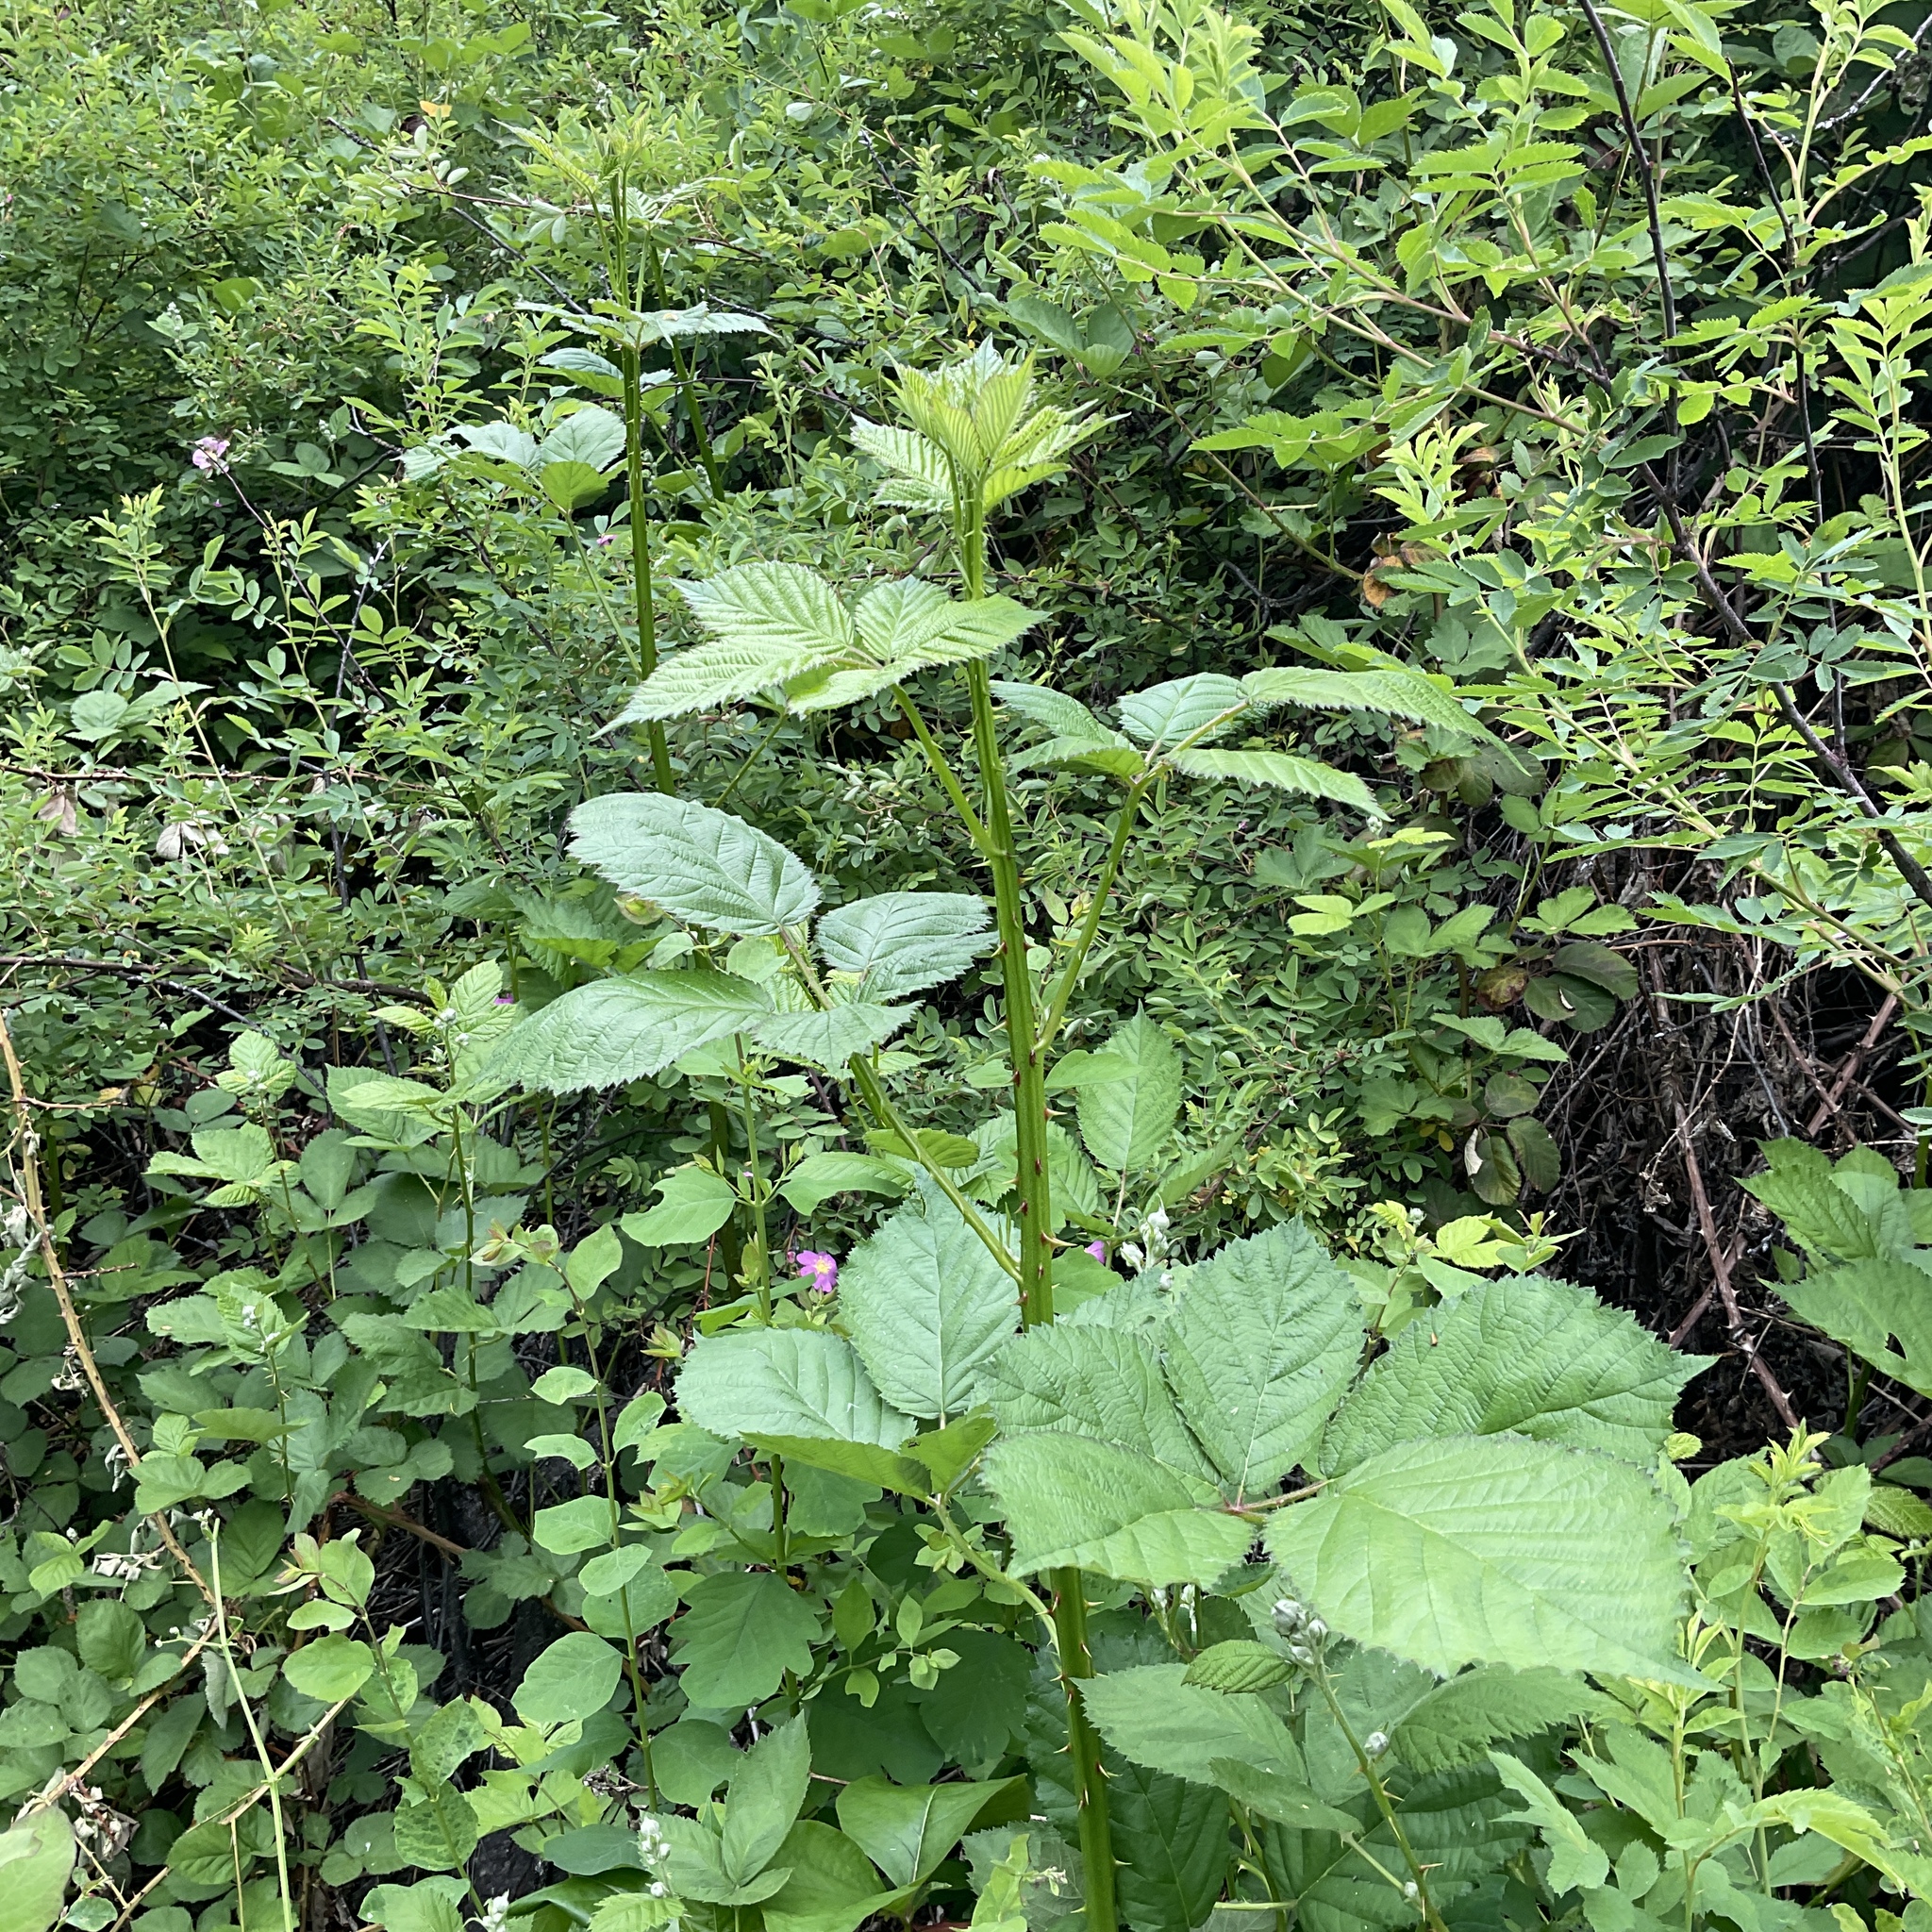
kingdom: Plantae
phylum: Tracheophyta
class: Magnoliopsida
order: Rosales
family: Rosaceae
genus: Rubus
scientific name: Rubus armeniacus
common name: Himalayan blackberry
